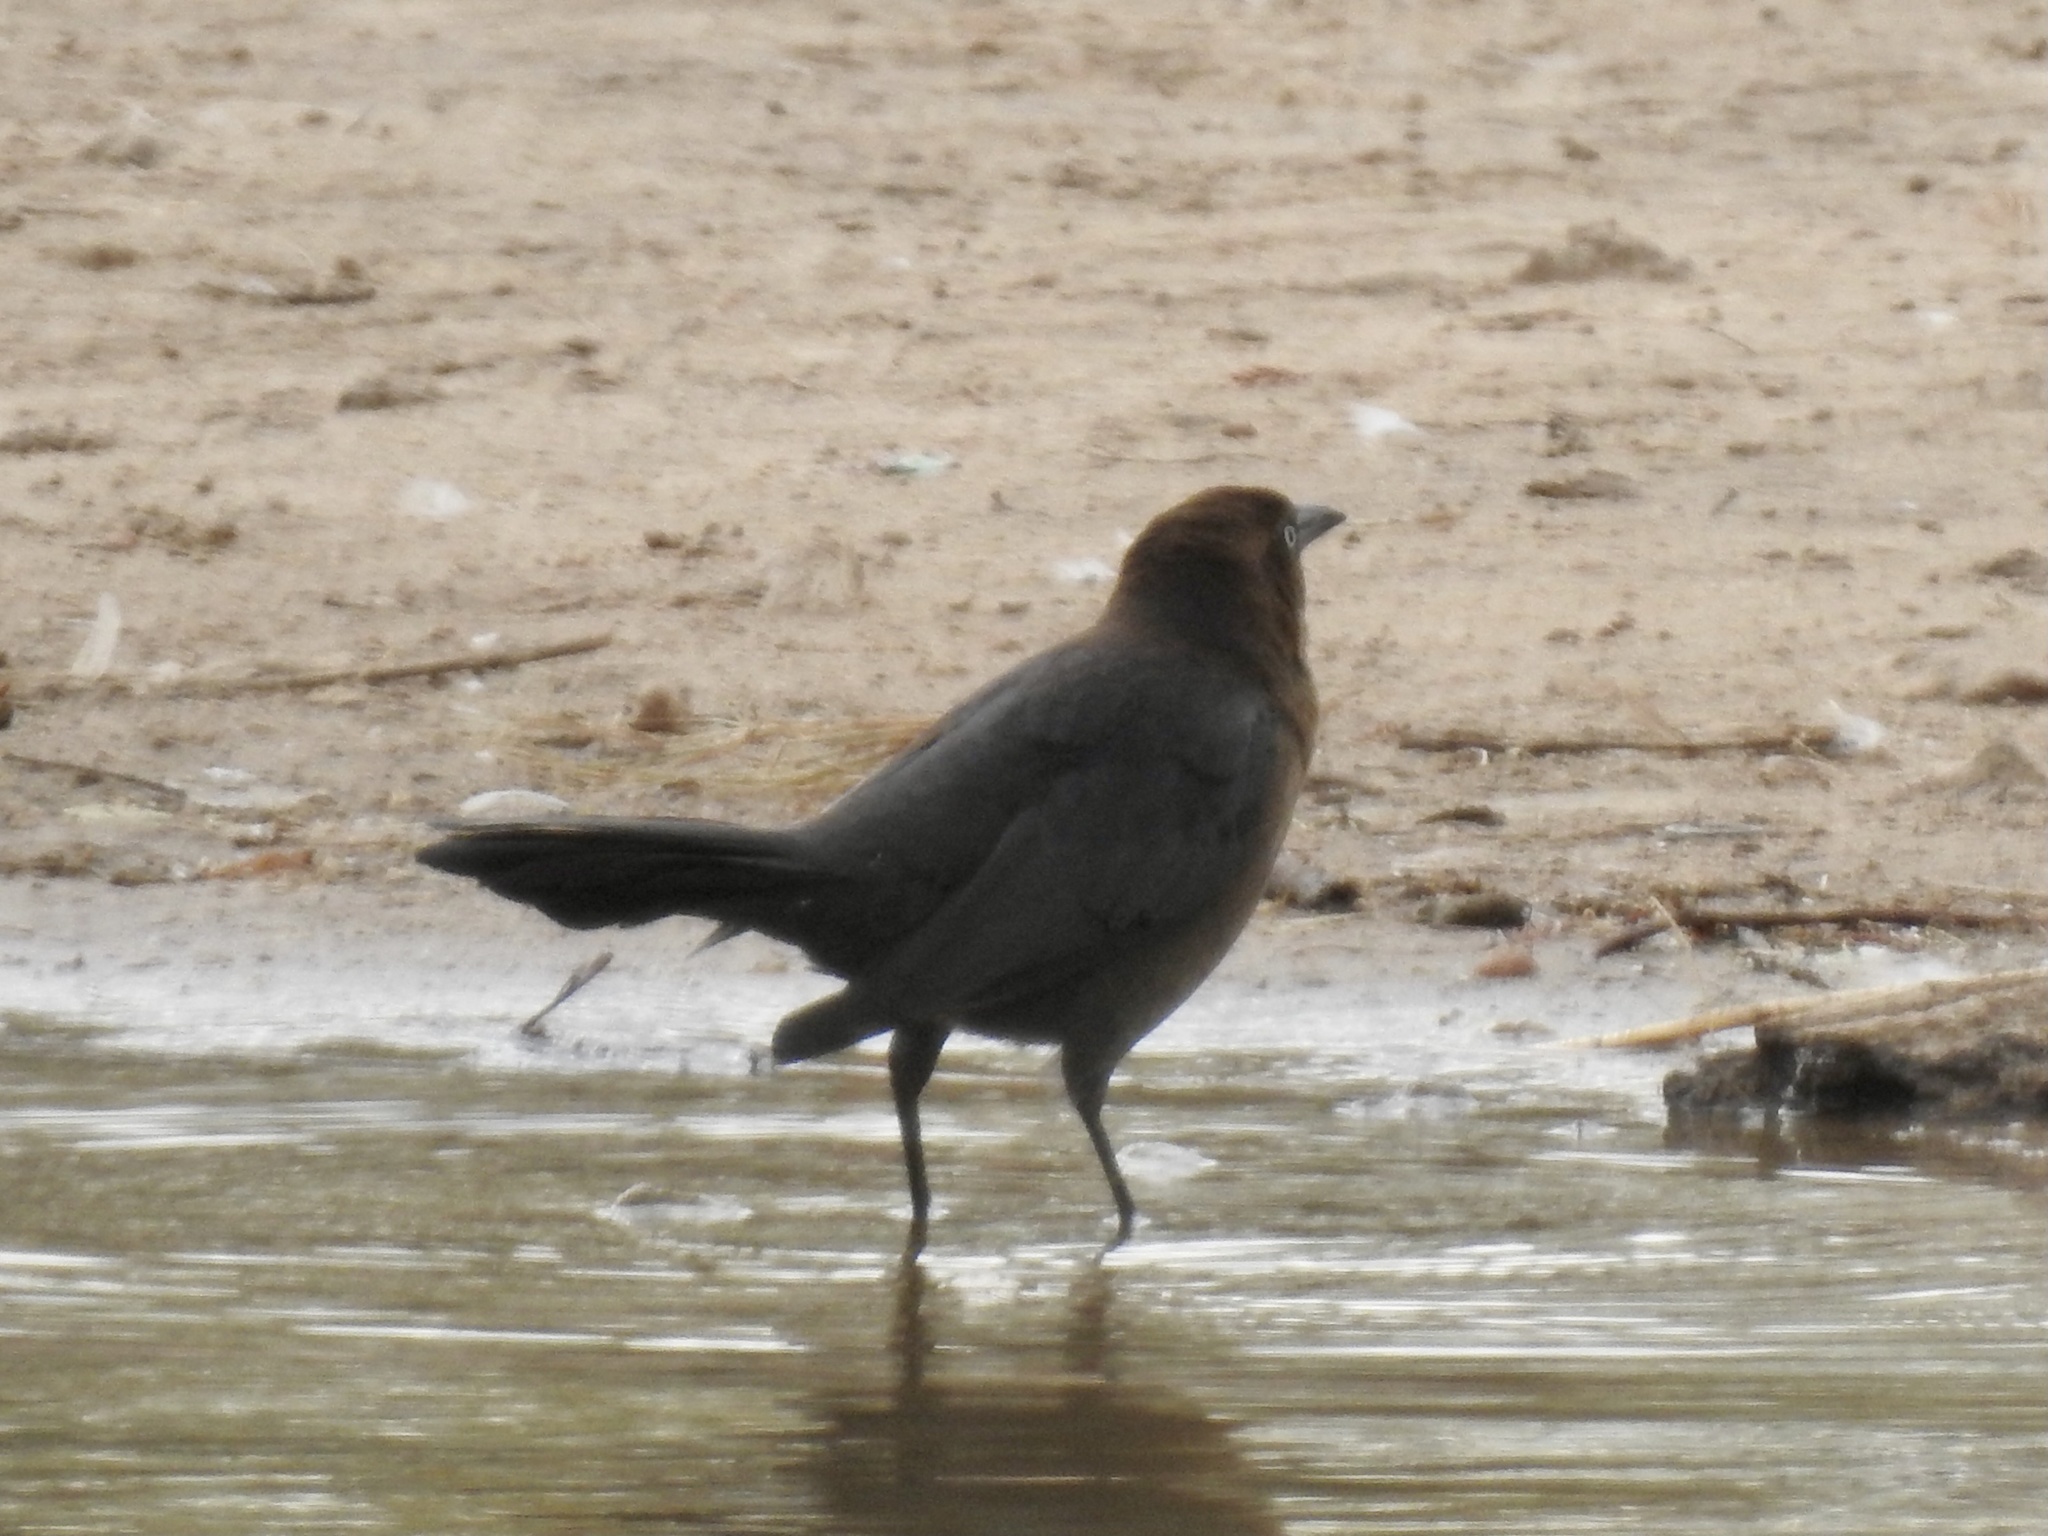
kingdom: Animalia
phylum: Chordata
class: Aves
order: Passeriformes
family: Icteridae
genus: Quiscalus
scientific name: Quiscalus mexicanus
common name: Great-tailed grackle
